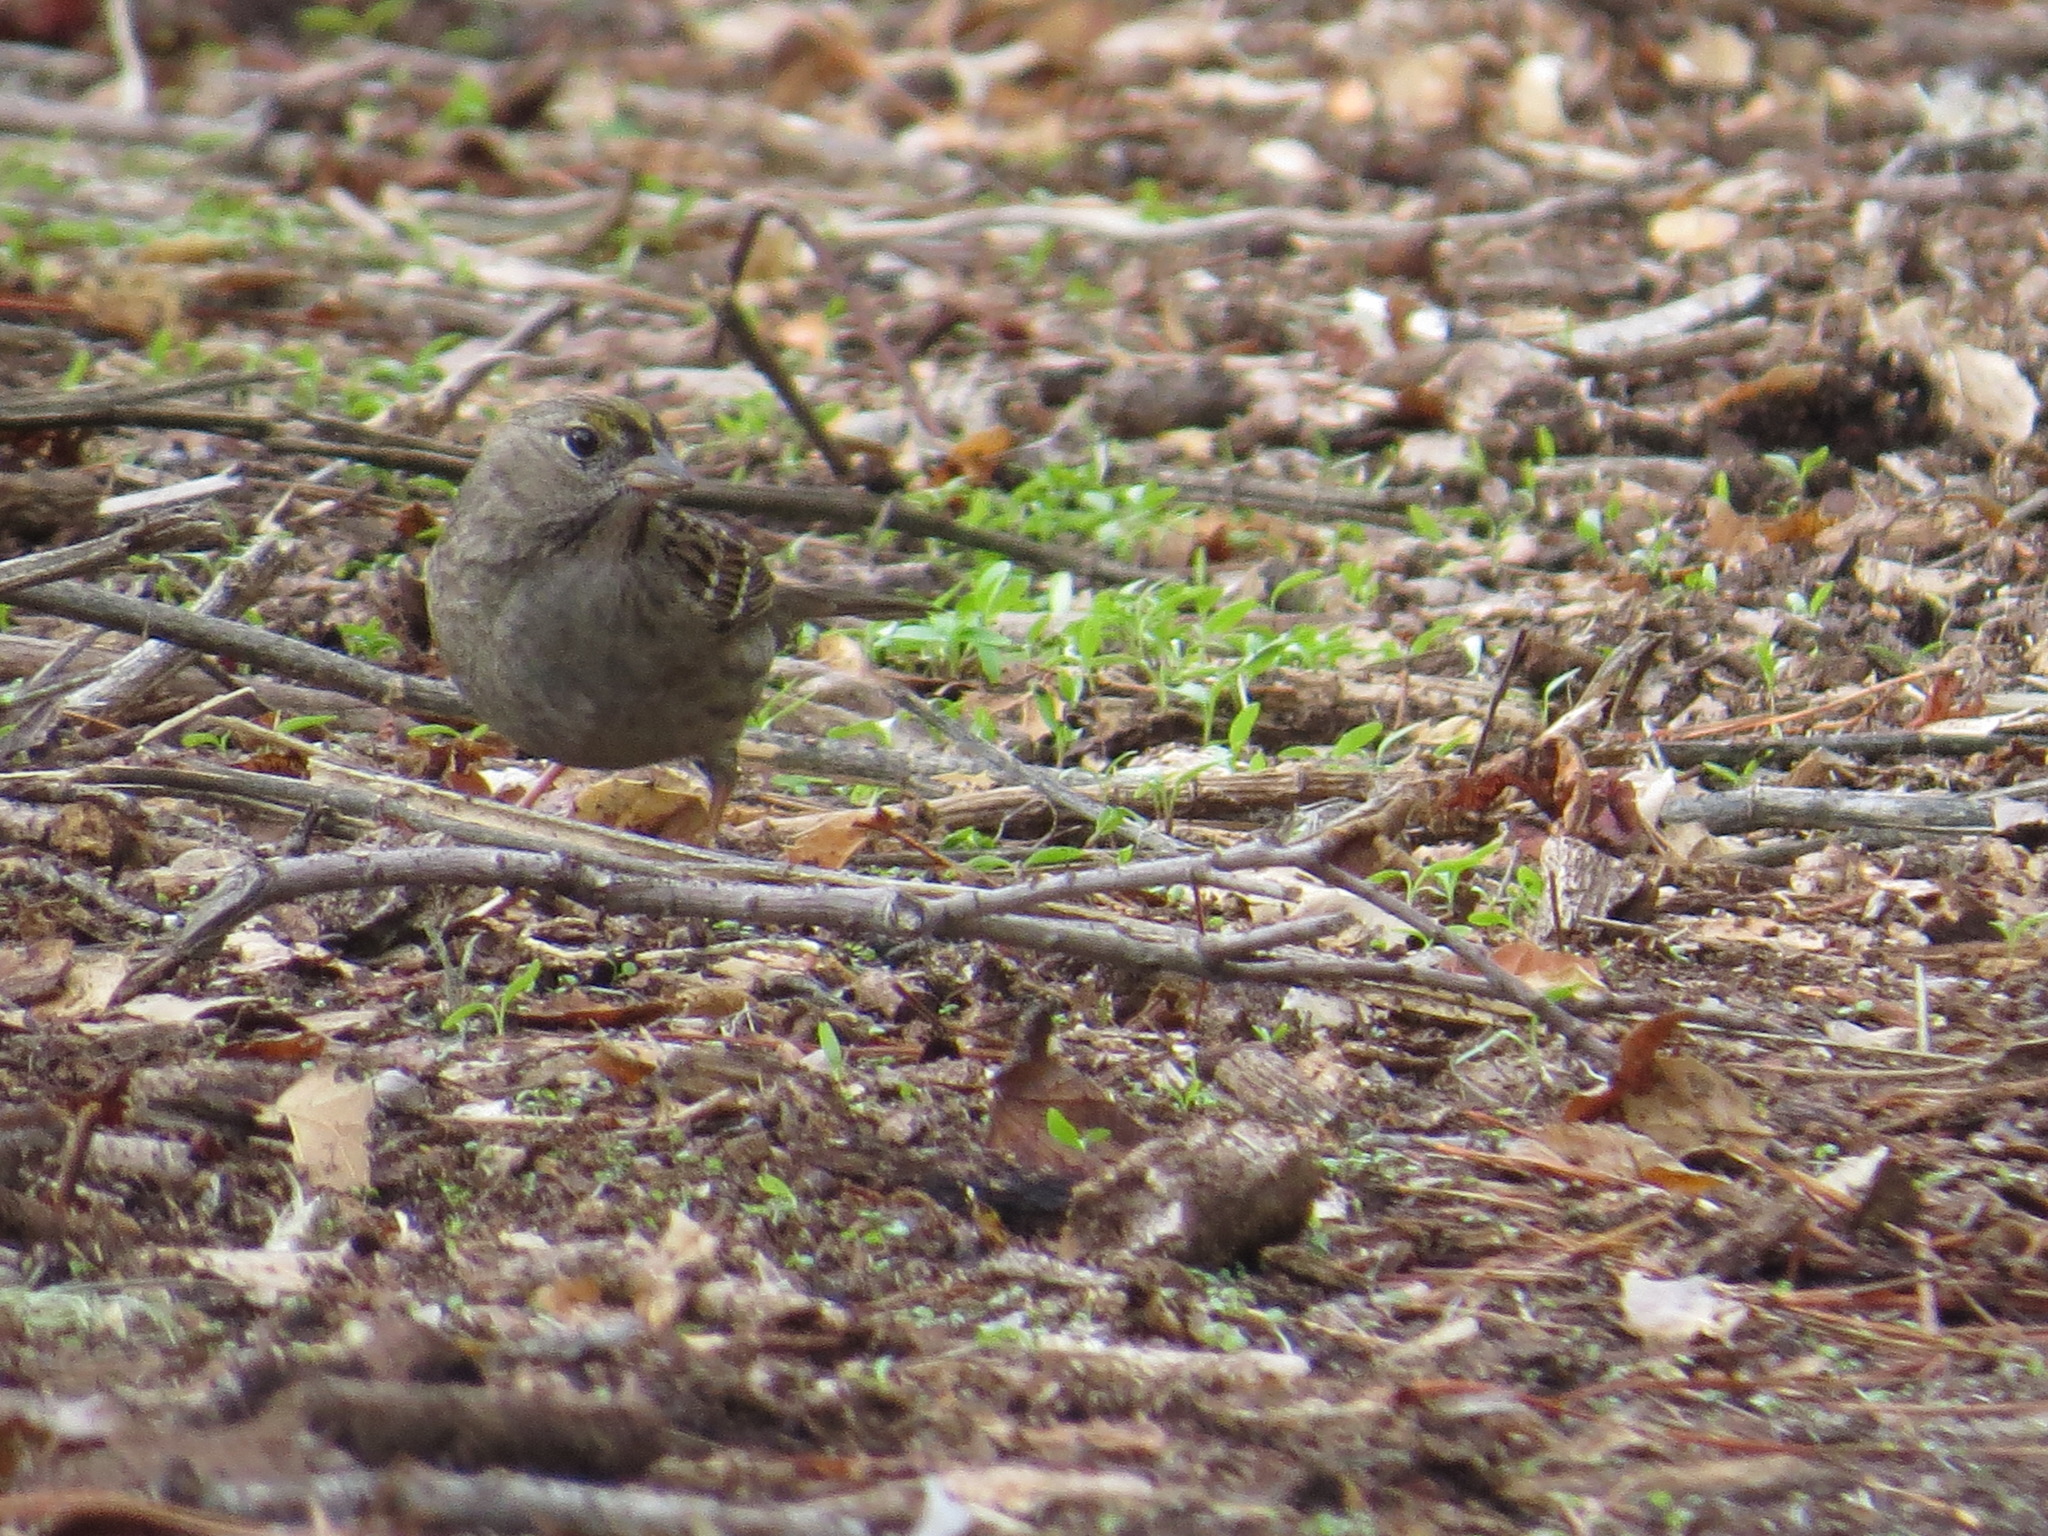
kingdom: Animalia
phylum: Chordata
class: Aves
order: Passeriformes
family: Passerellidae
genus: Zonotrichia
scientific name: Zonotrichia atricapilla
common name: Golden-crowned sparrow
